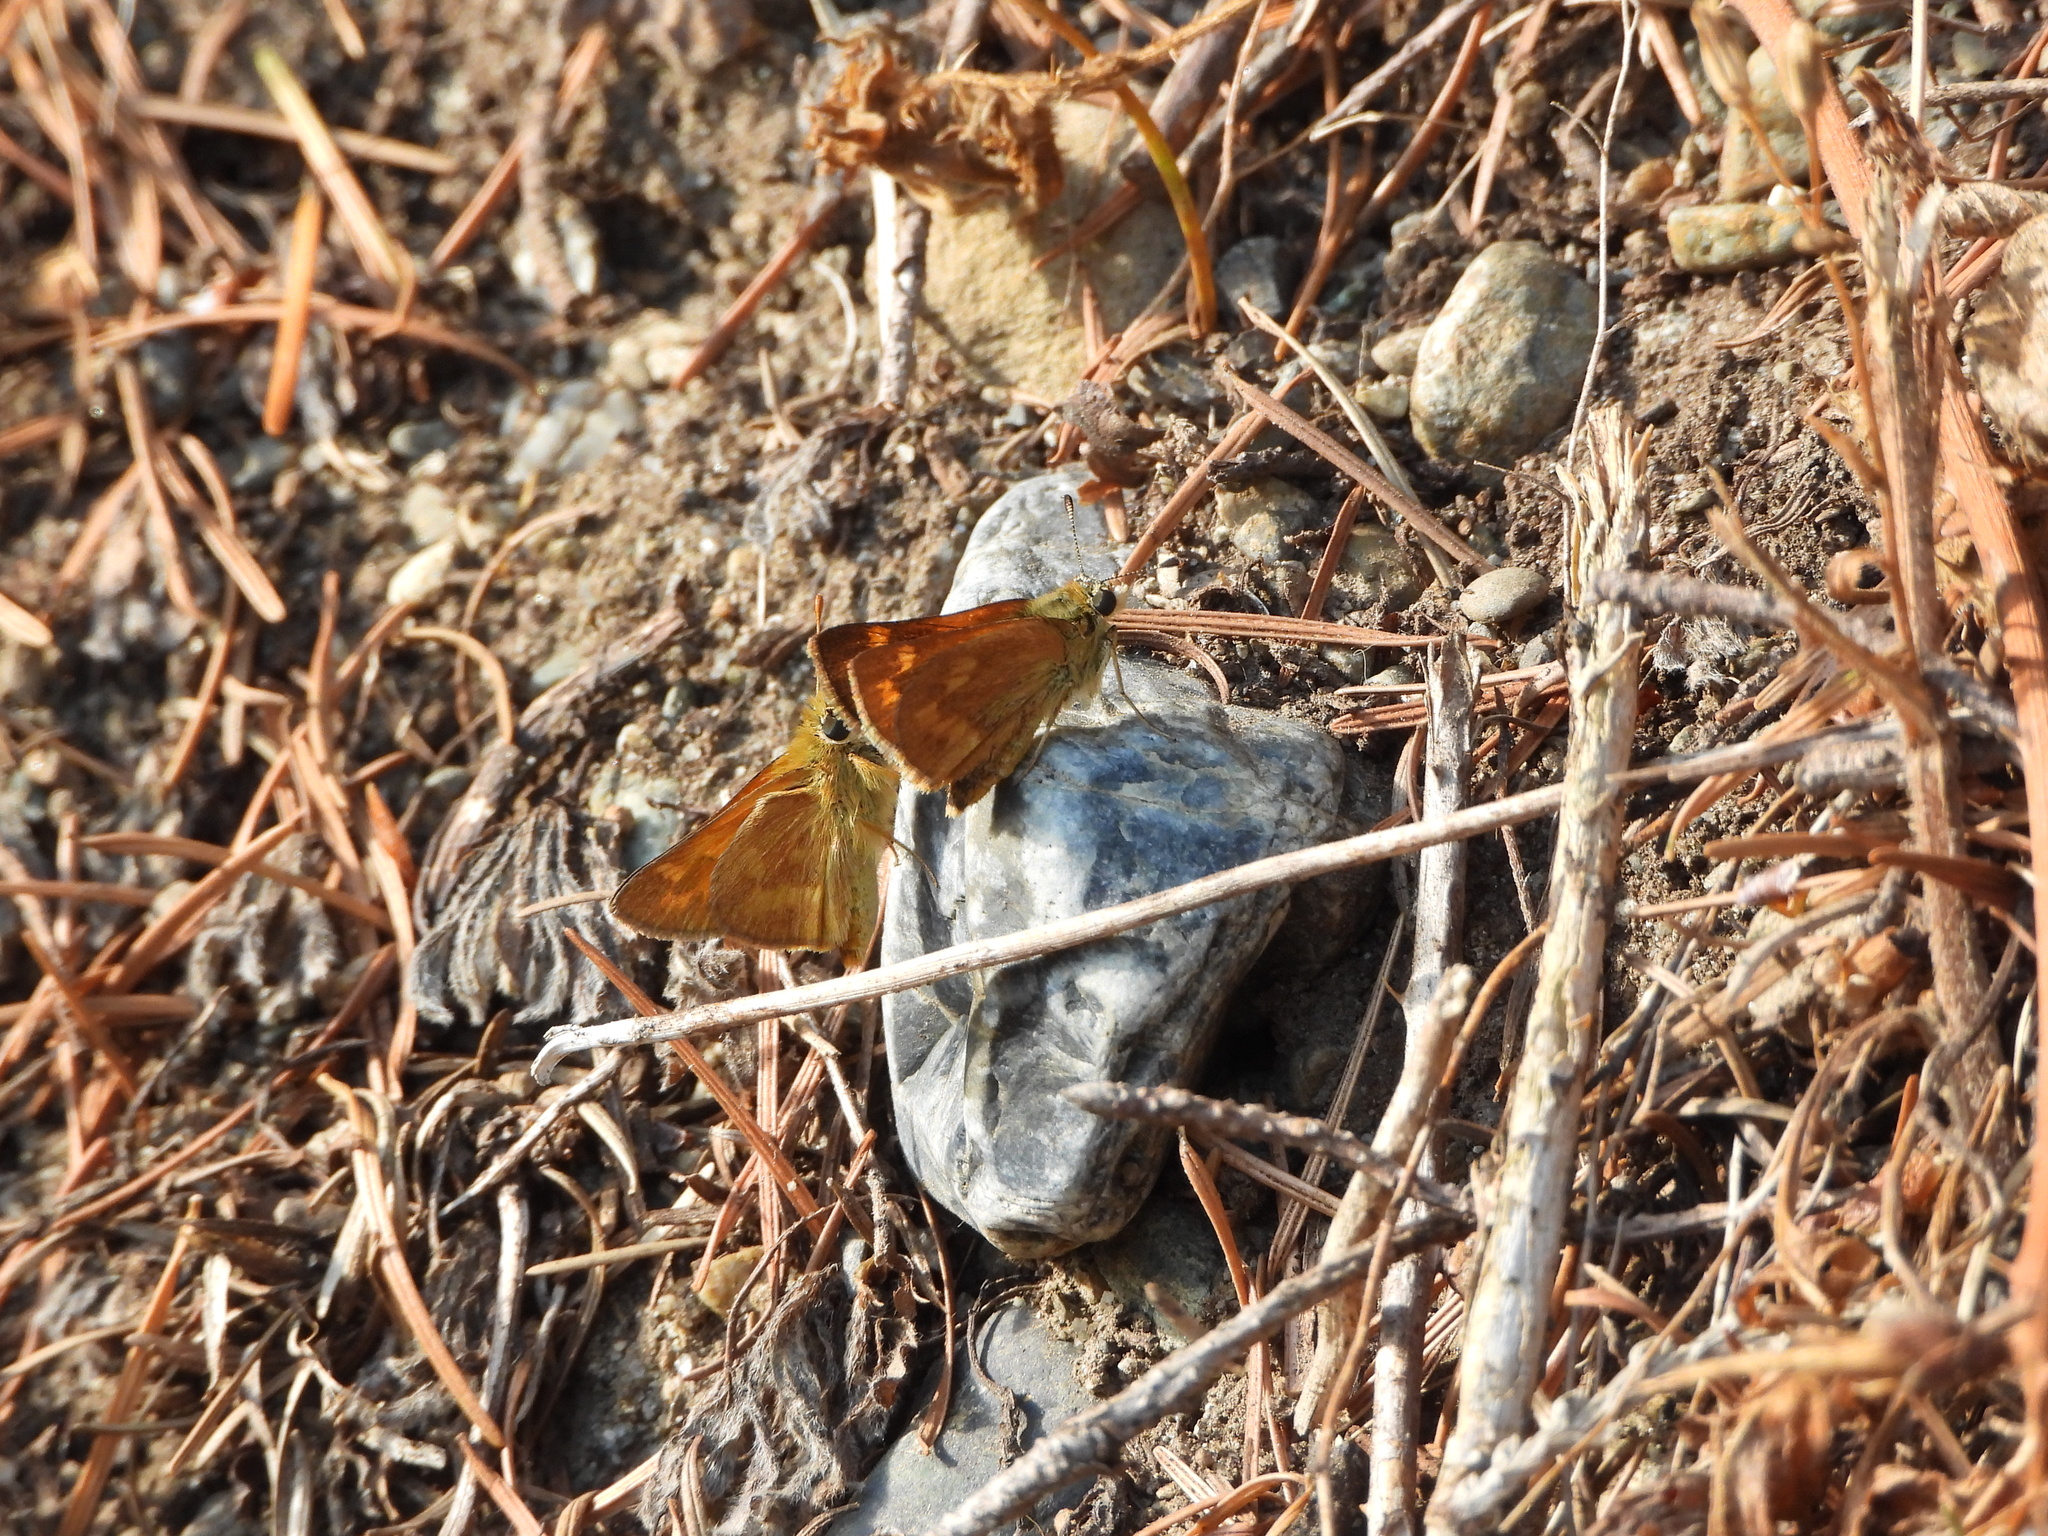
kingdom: Animalia
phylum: Arthropoda
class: Insecta
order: Lepidoptera
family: Hesperiidae
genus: Ochlodes
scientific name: Ochlodes sylvanoides
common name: Woodland skipper
